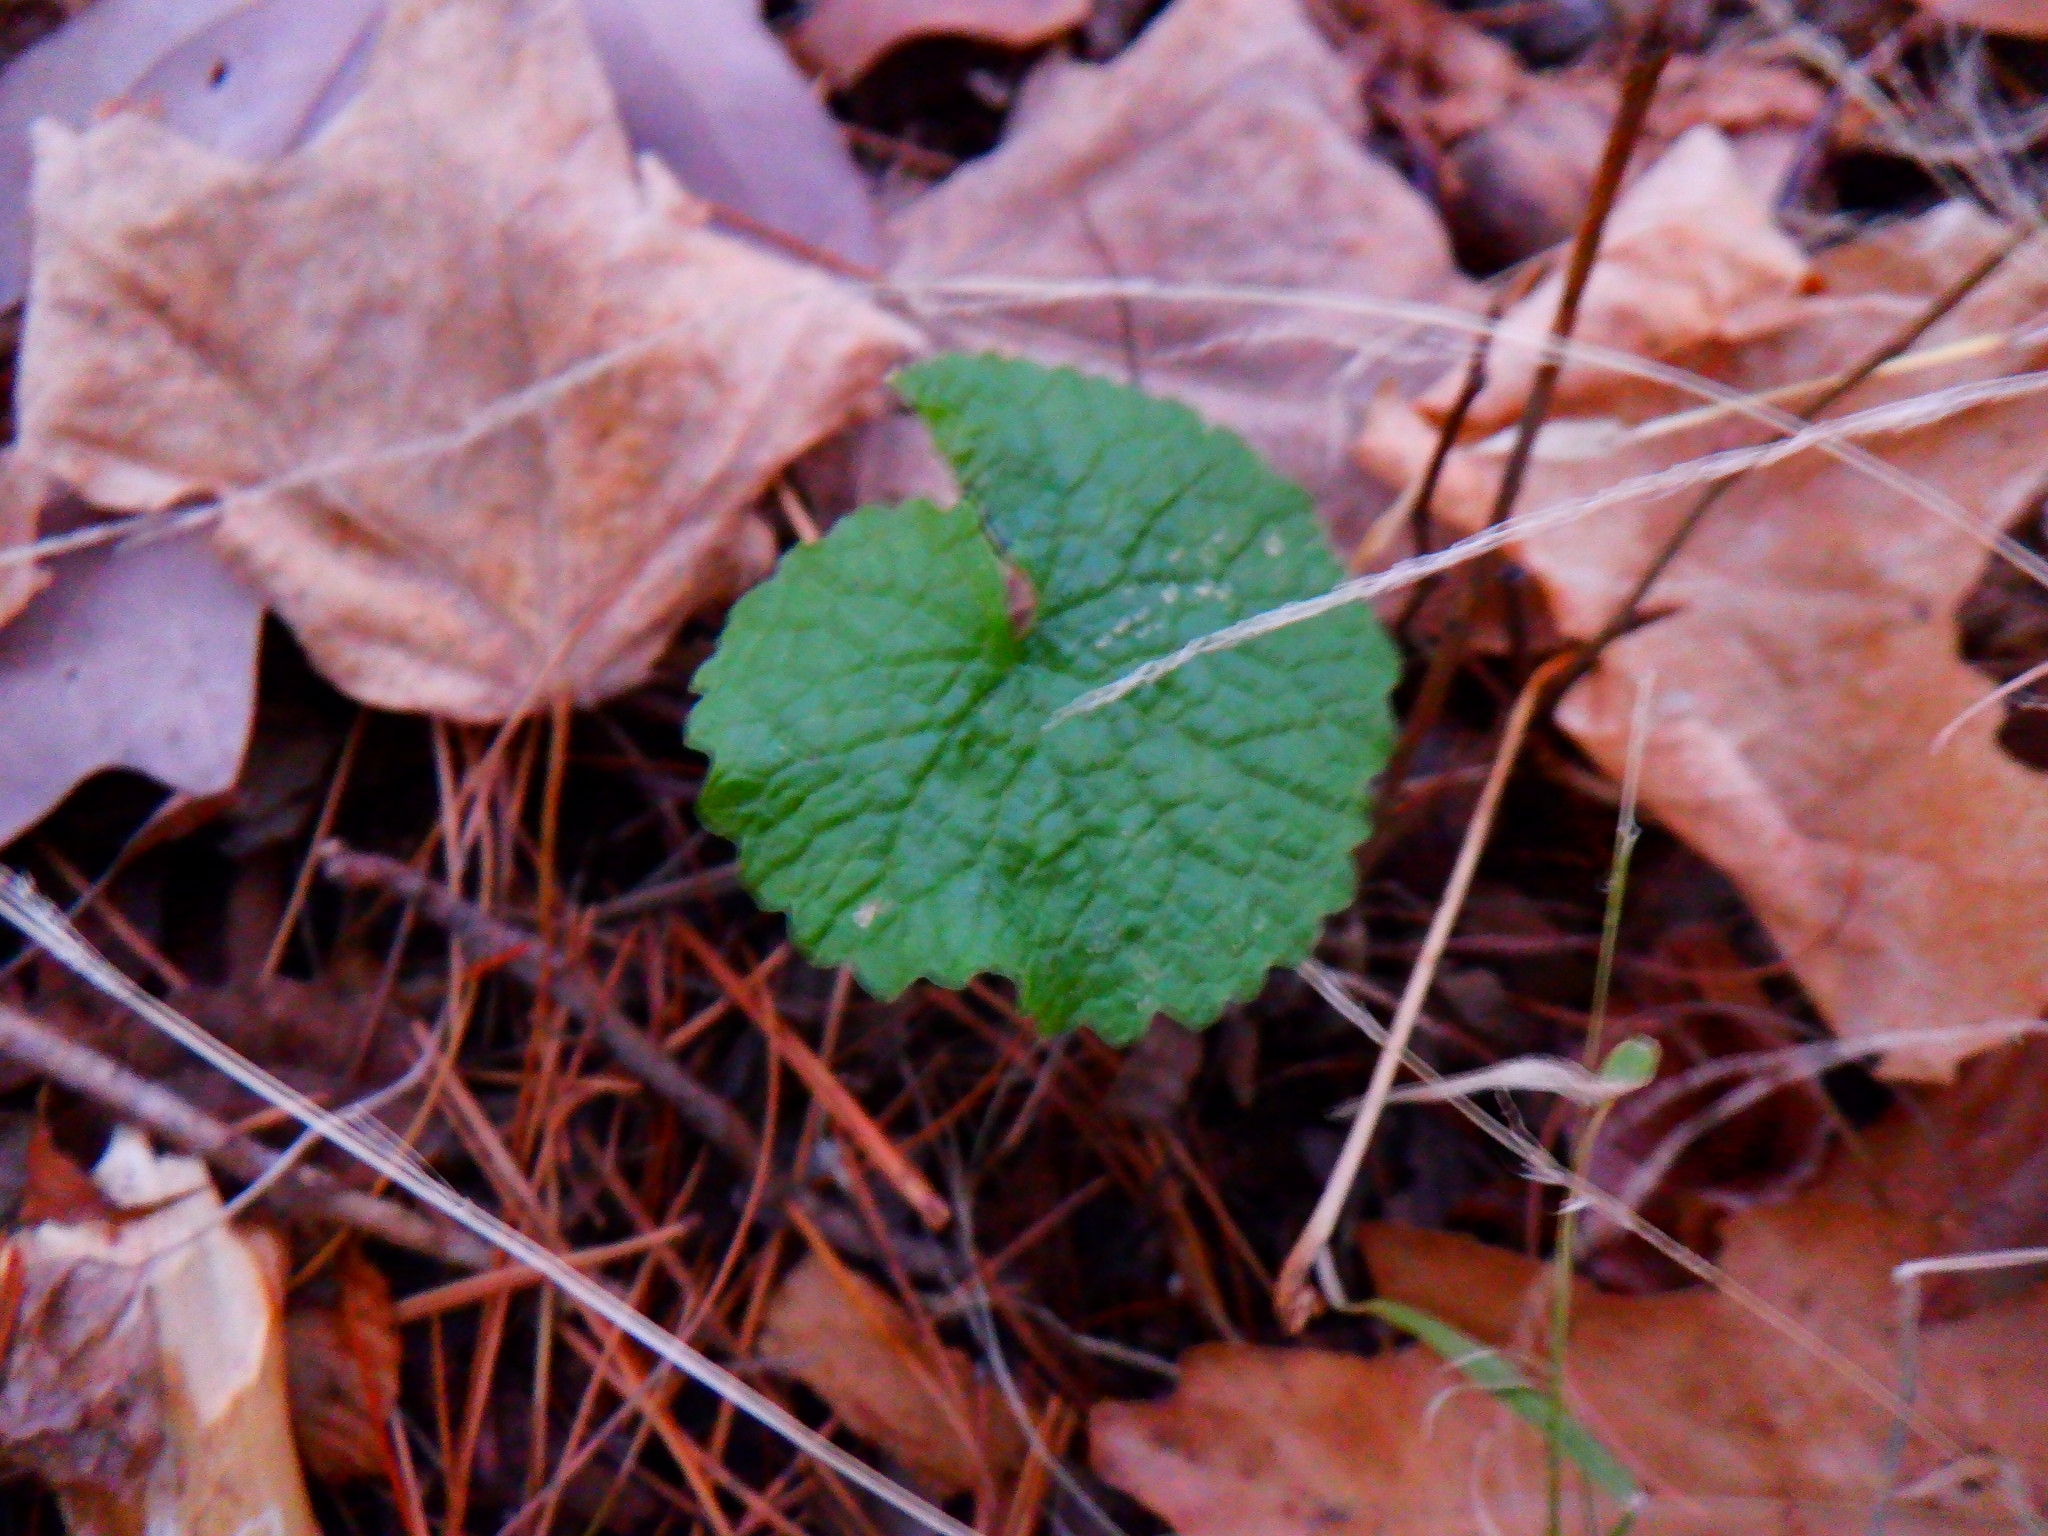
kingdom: Plantae
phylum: Tracheophyta
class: Magnoliopsida
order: Brassicales
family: Brassicaceae
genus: Alliaria
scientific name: Alliaria petiolata
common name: Garlic mustard
